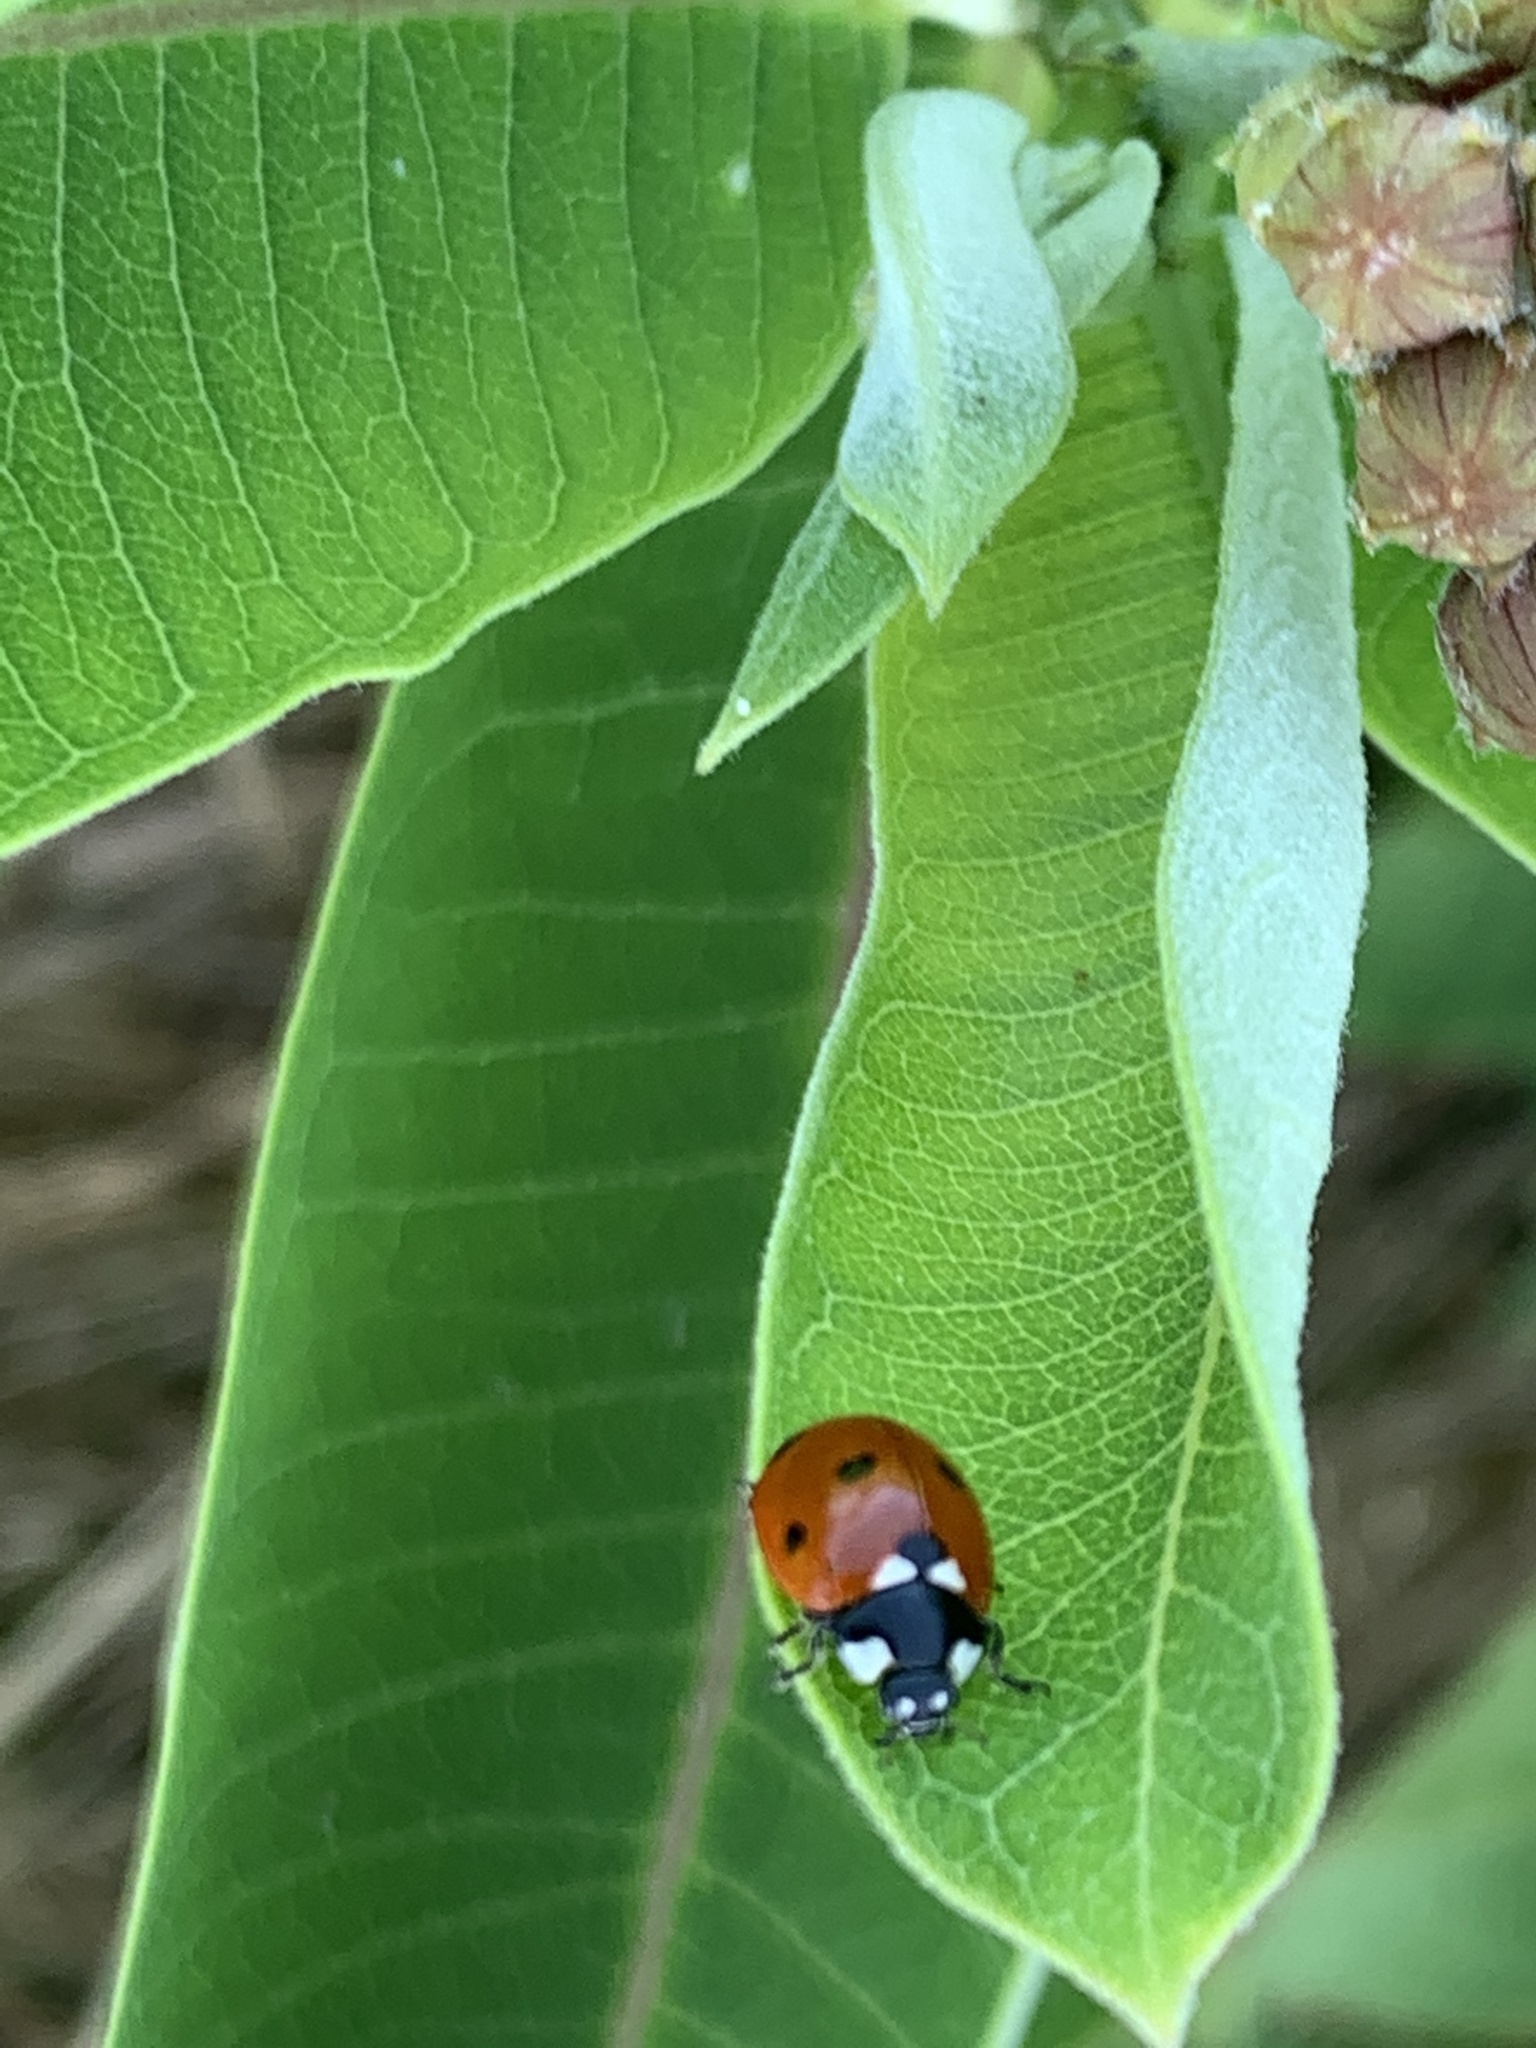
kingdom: Animalia
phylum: Arthropoda
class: Insecta
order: Coleoptera
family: Coccinellidae
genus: Coccinella
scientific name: Coccinella septempunctata
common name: Sevenspotted lady beetle
